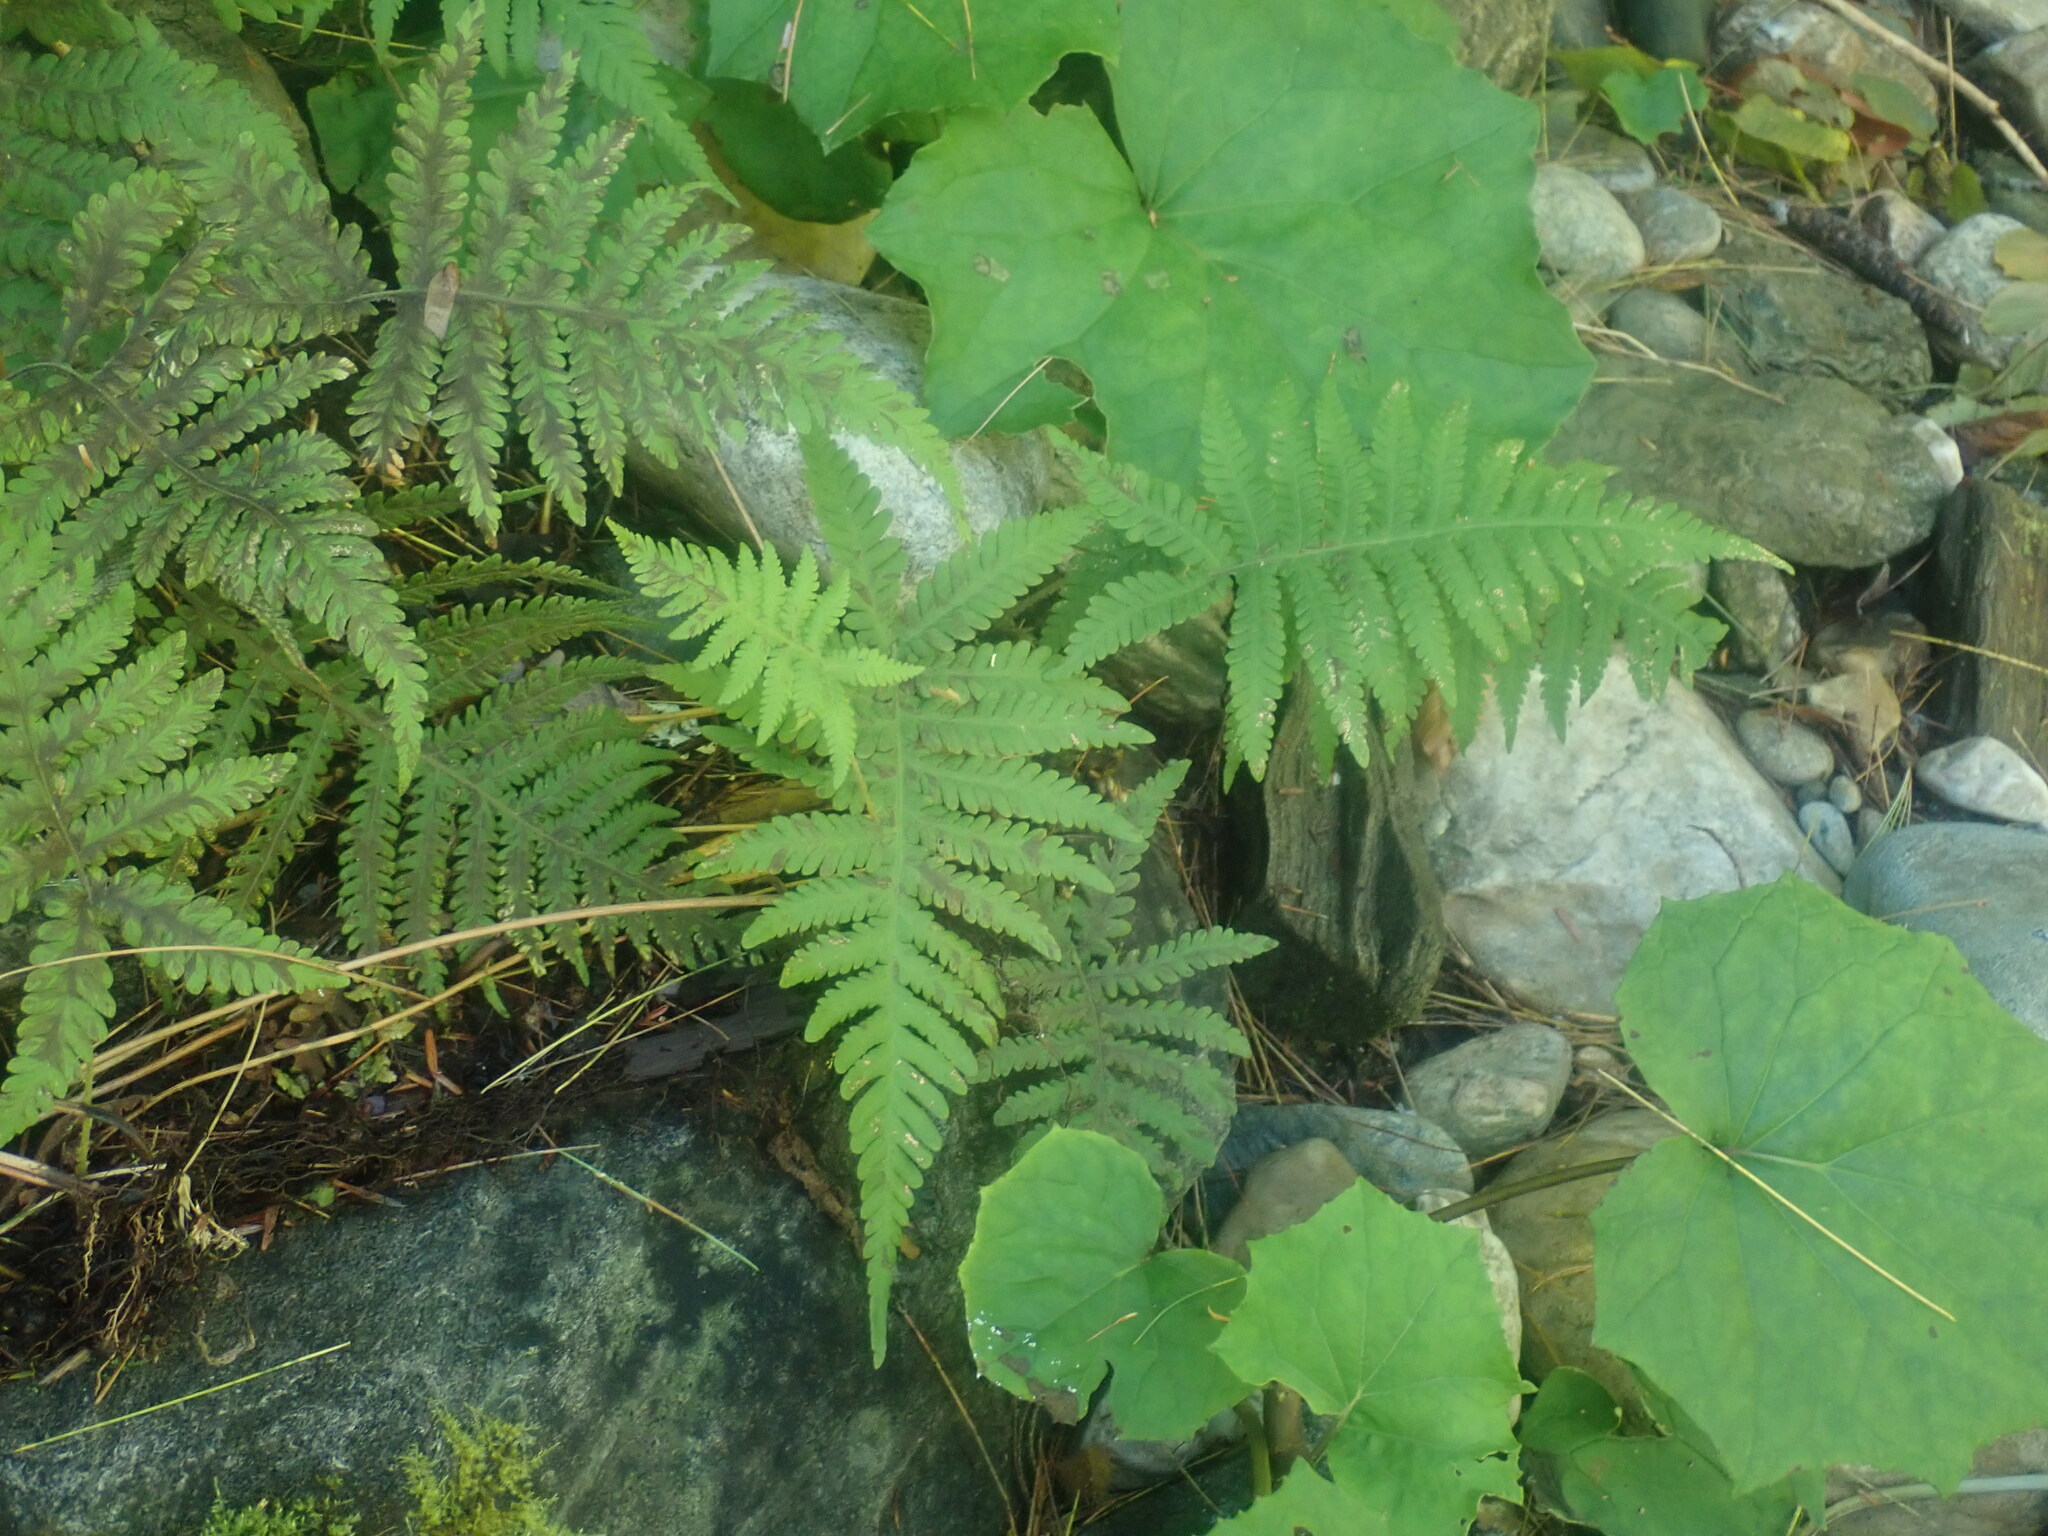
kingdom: Plantae
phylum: Tracheophyta
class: Polypodiopsida
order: Polypodiales
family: Thelypteridaceae
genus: Phegopteris
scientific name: Phegopteris connectilis
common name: Beech fern
